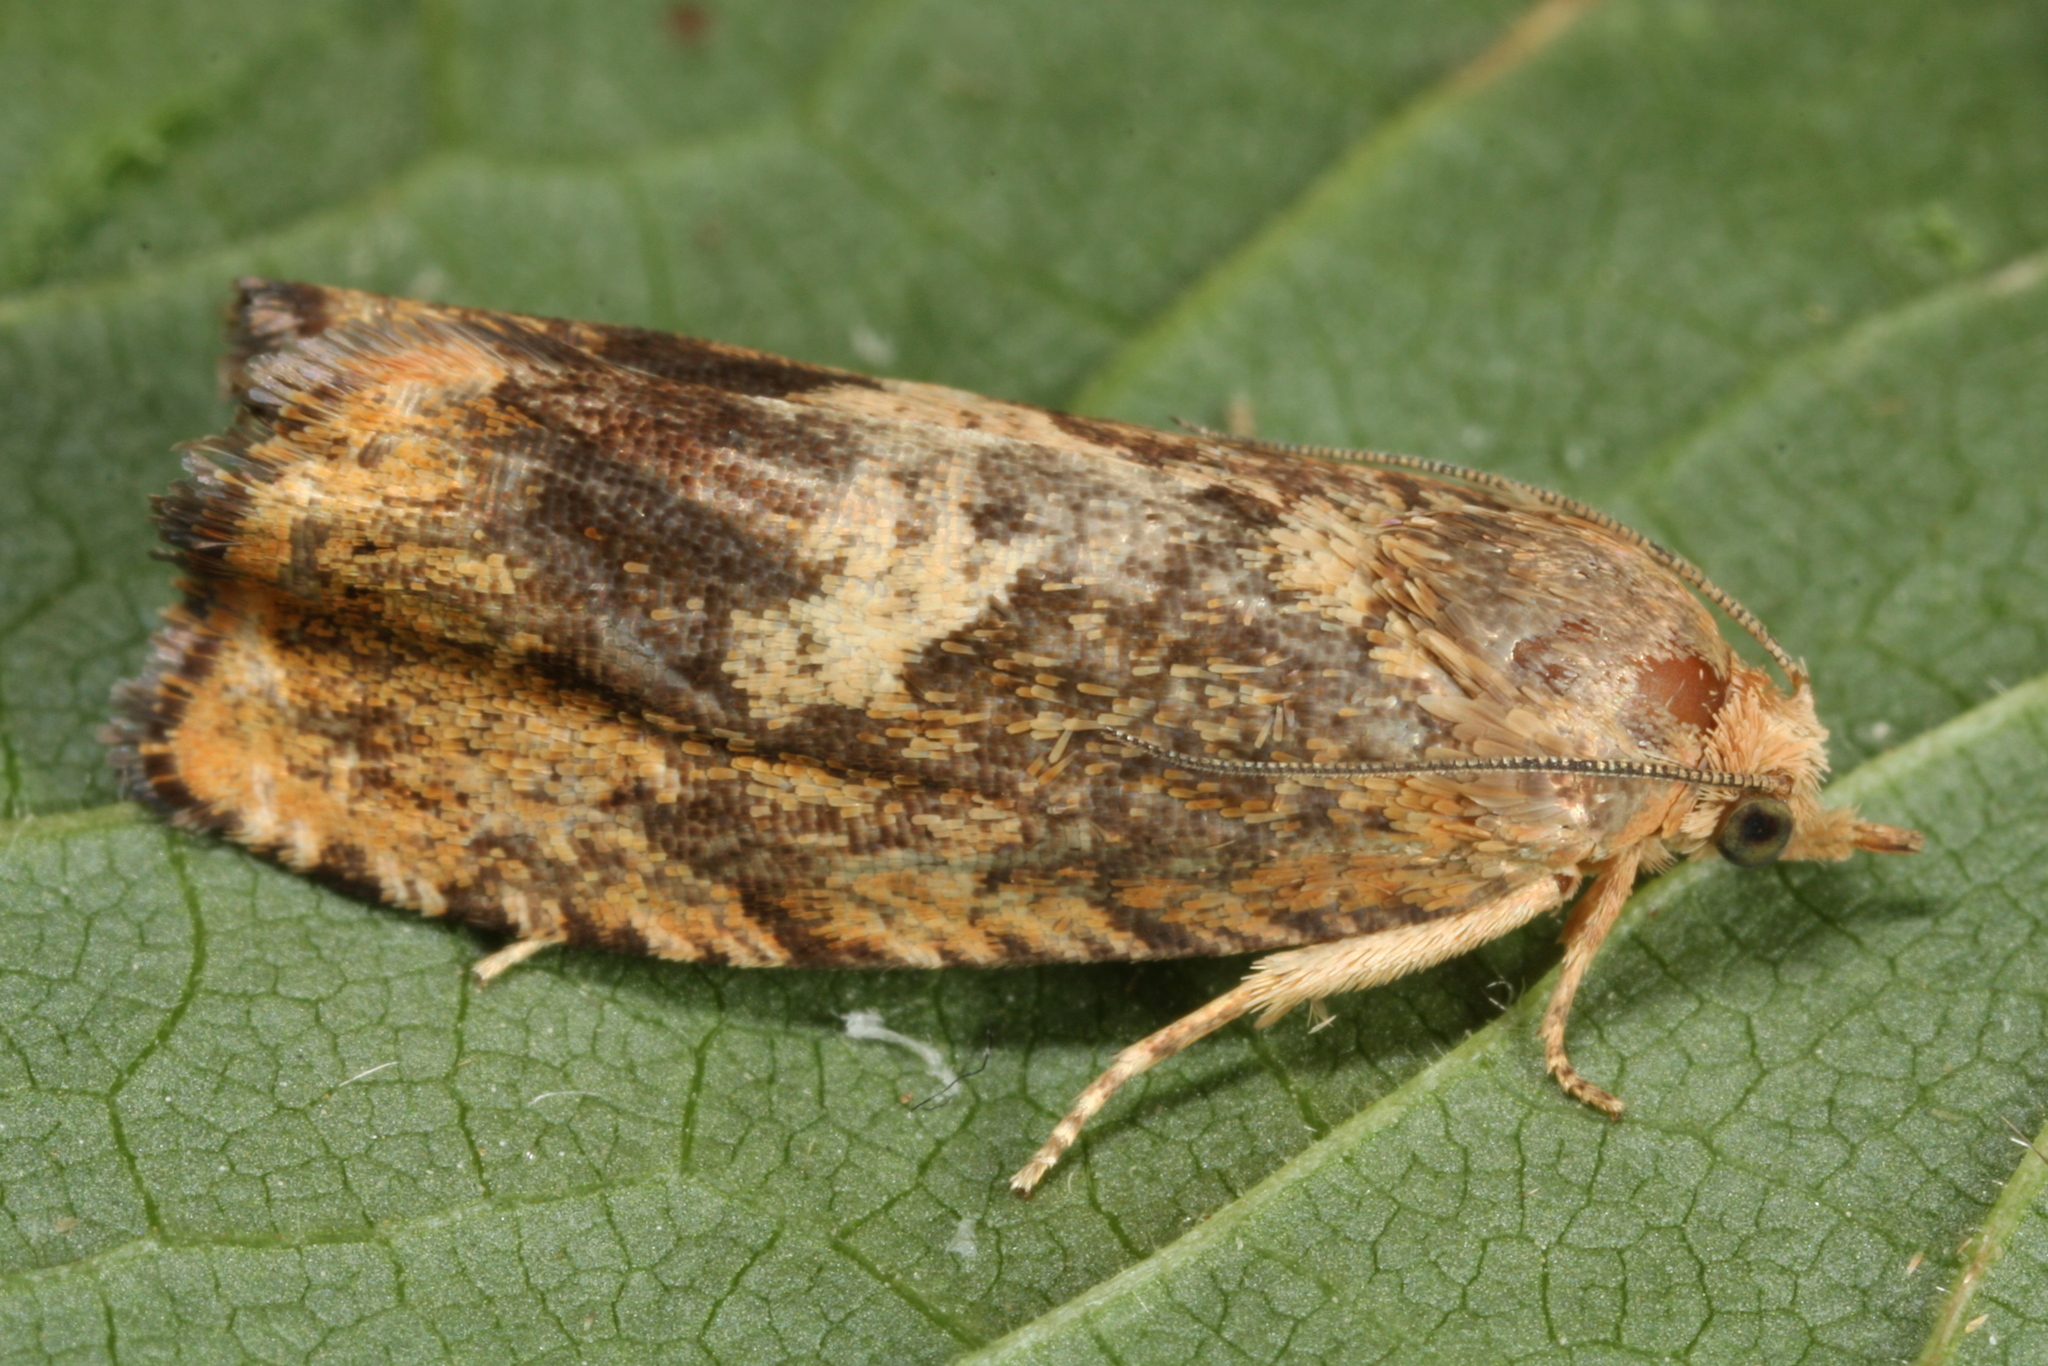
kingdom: Animalia
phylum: Arthropoda
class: Insecta
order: Lepidoptera
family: Tortricidae
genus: Cydia
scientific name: Cydia amplana
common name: Vagrant piercer
